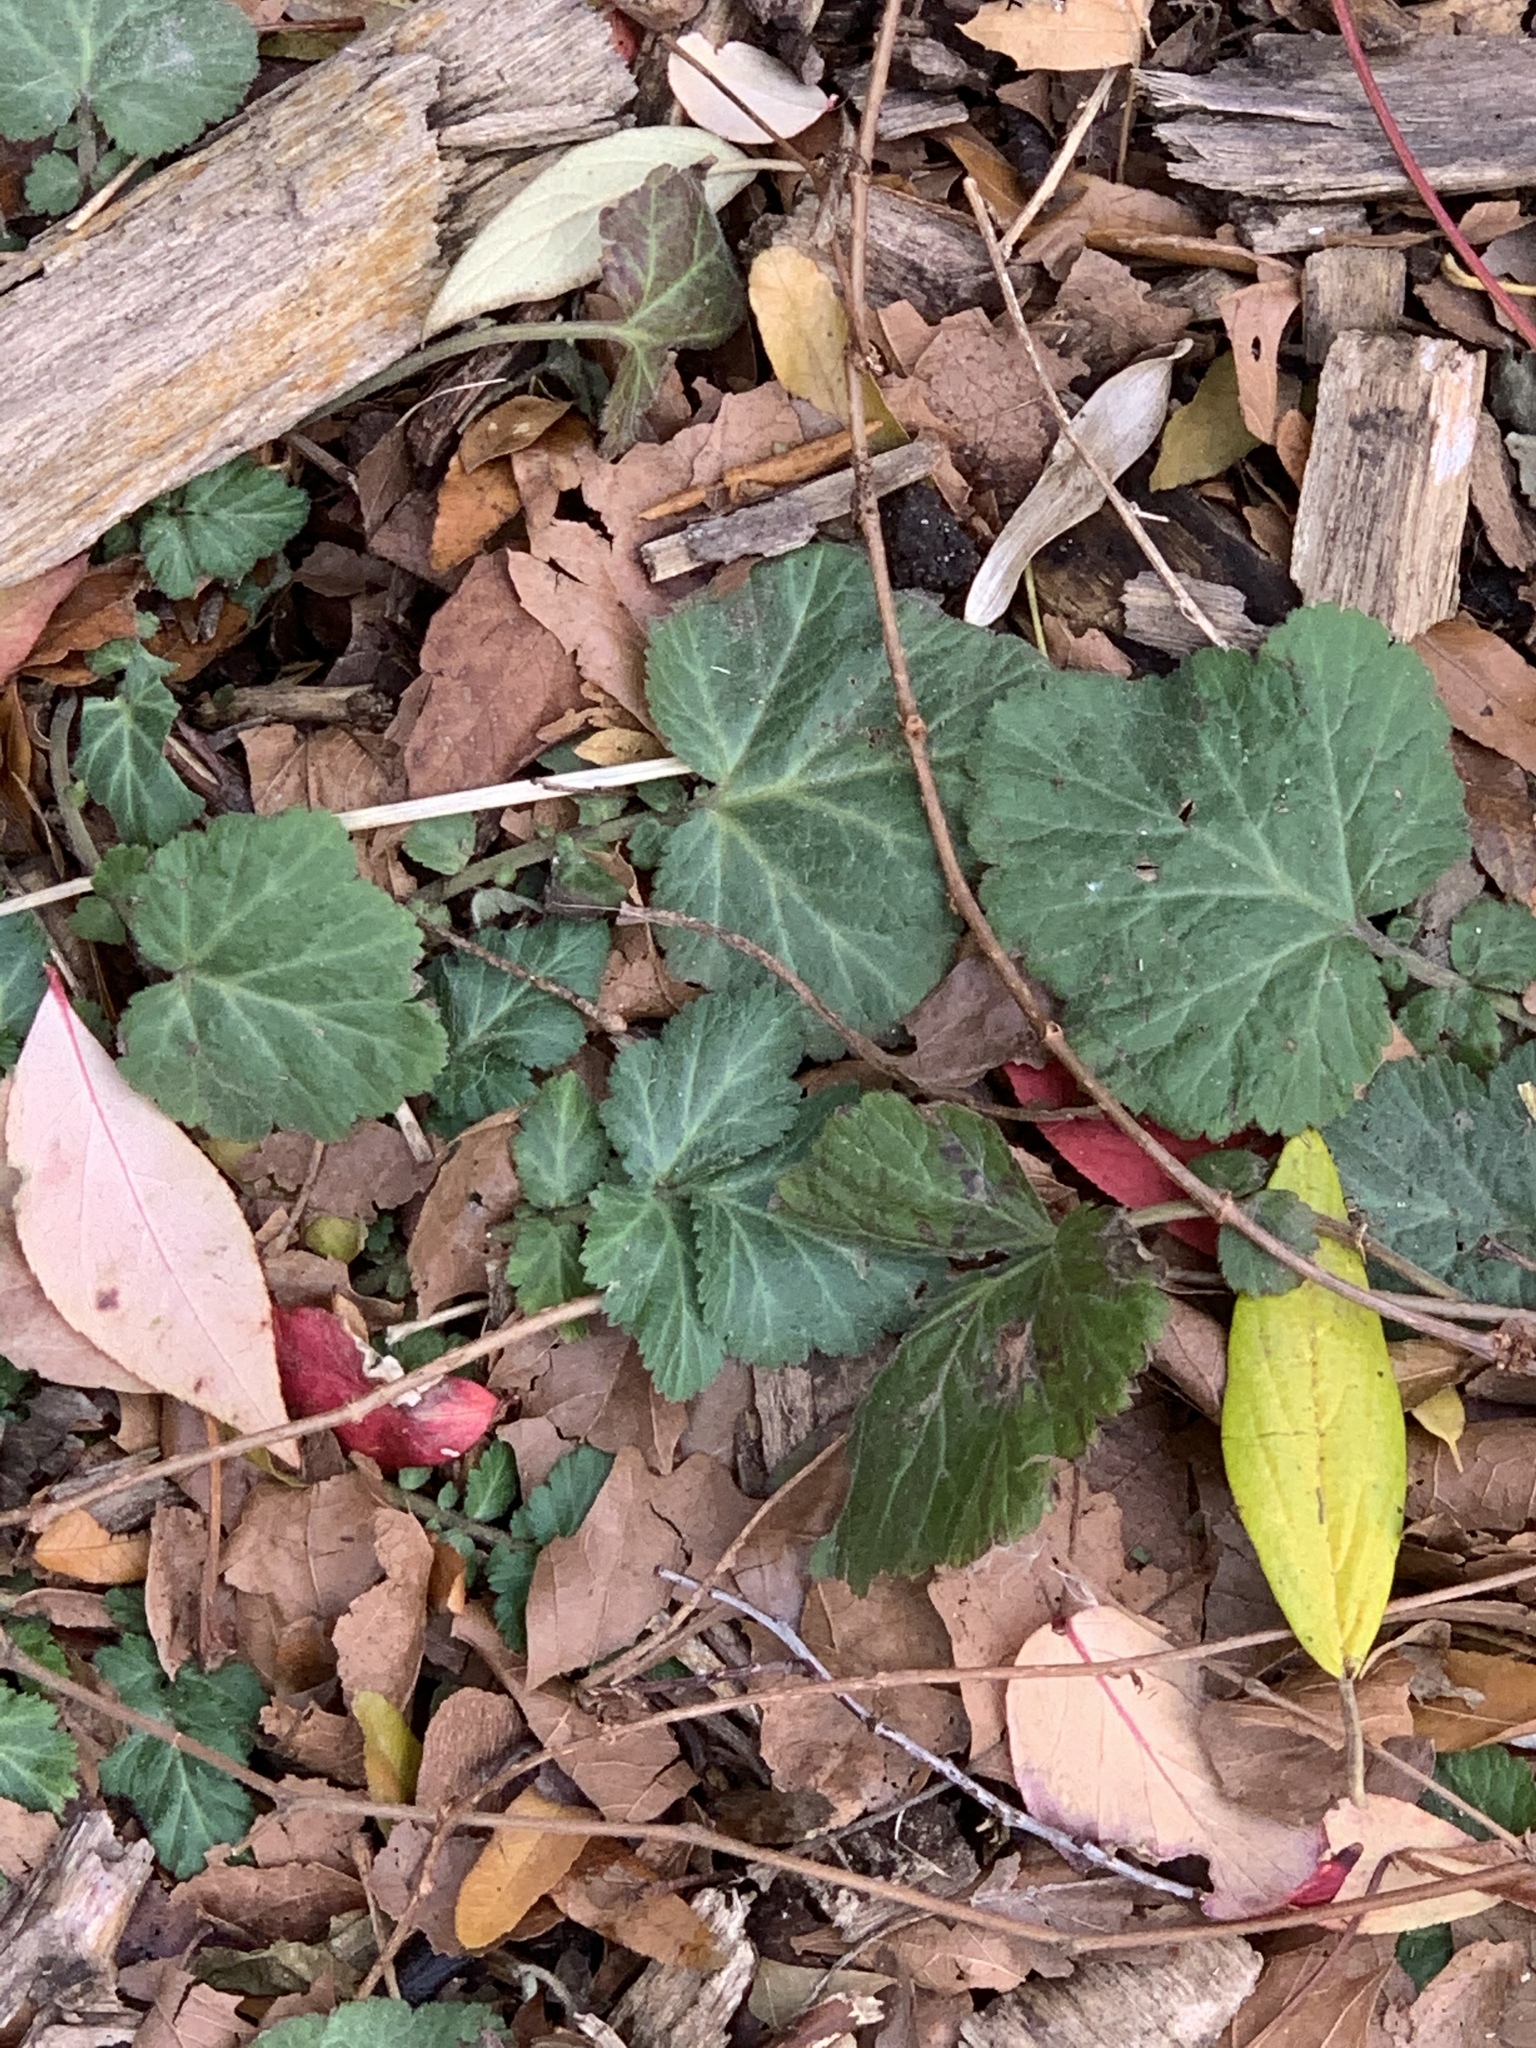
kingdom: Plantae
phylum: Tracheophyta
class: Magnoliopsida
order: Rosales
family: Rosaceae
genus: Geum
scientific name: Geum canadense
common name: White avens
